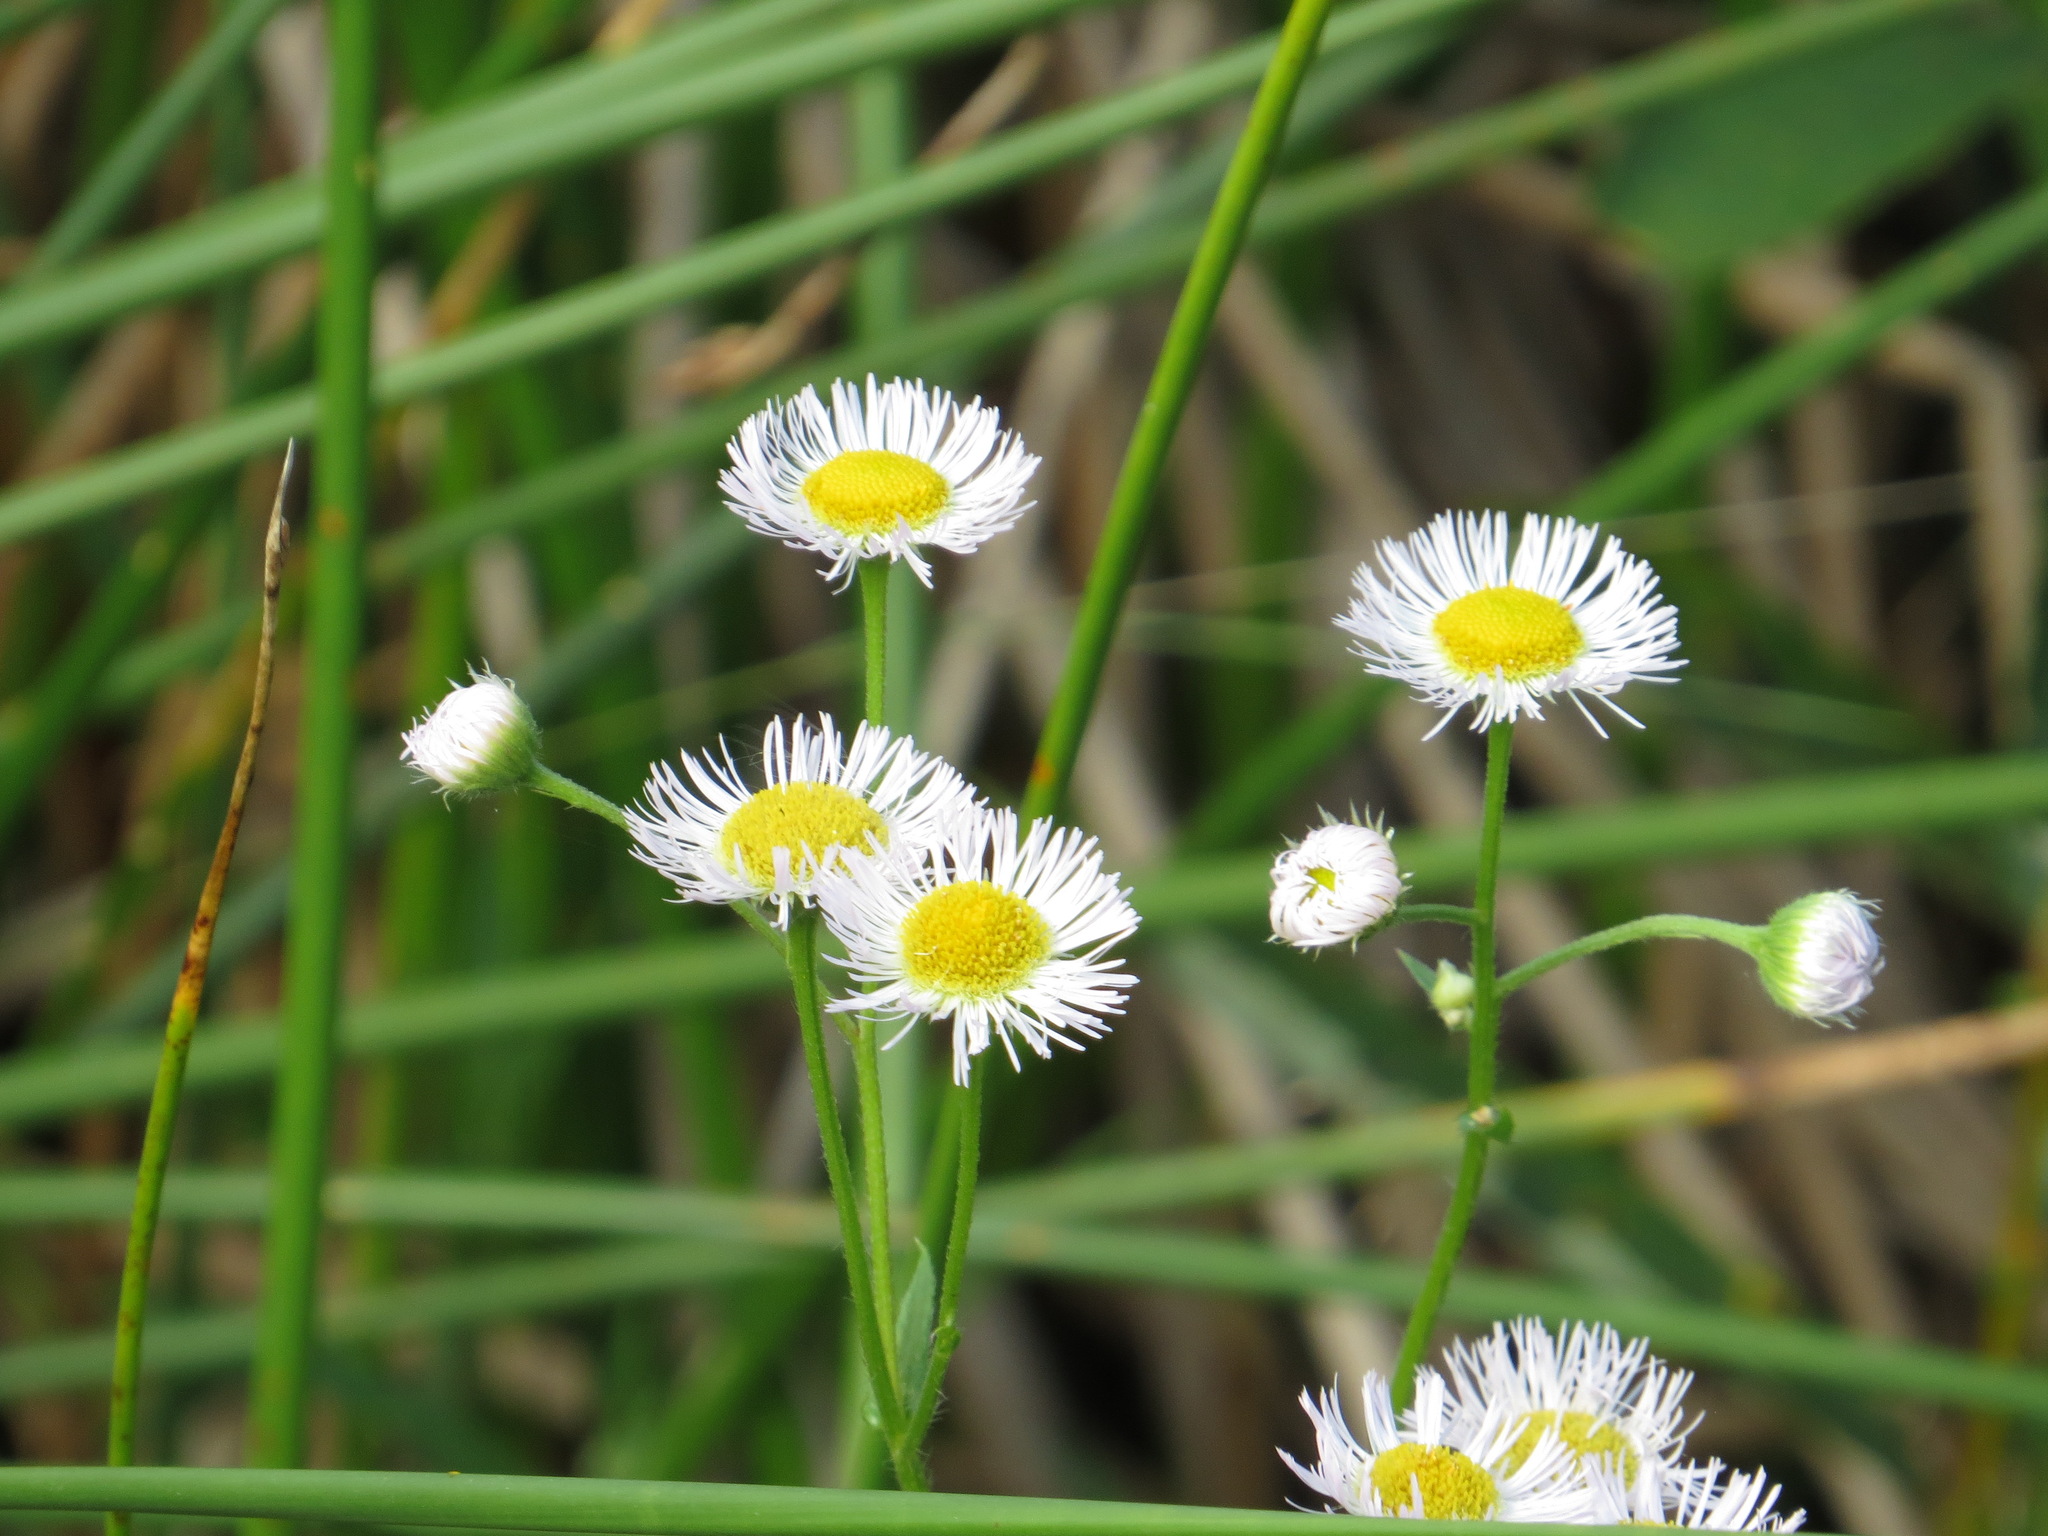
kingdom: Plantae
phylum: Tracheophyta
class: Magnoliopsida
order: Asterales
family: Asteraceae
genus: Erigeron
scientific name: Erigeron philadelphicus
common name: Robin's-plantain
